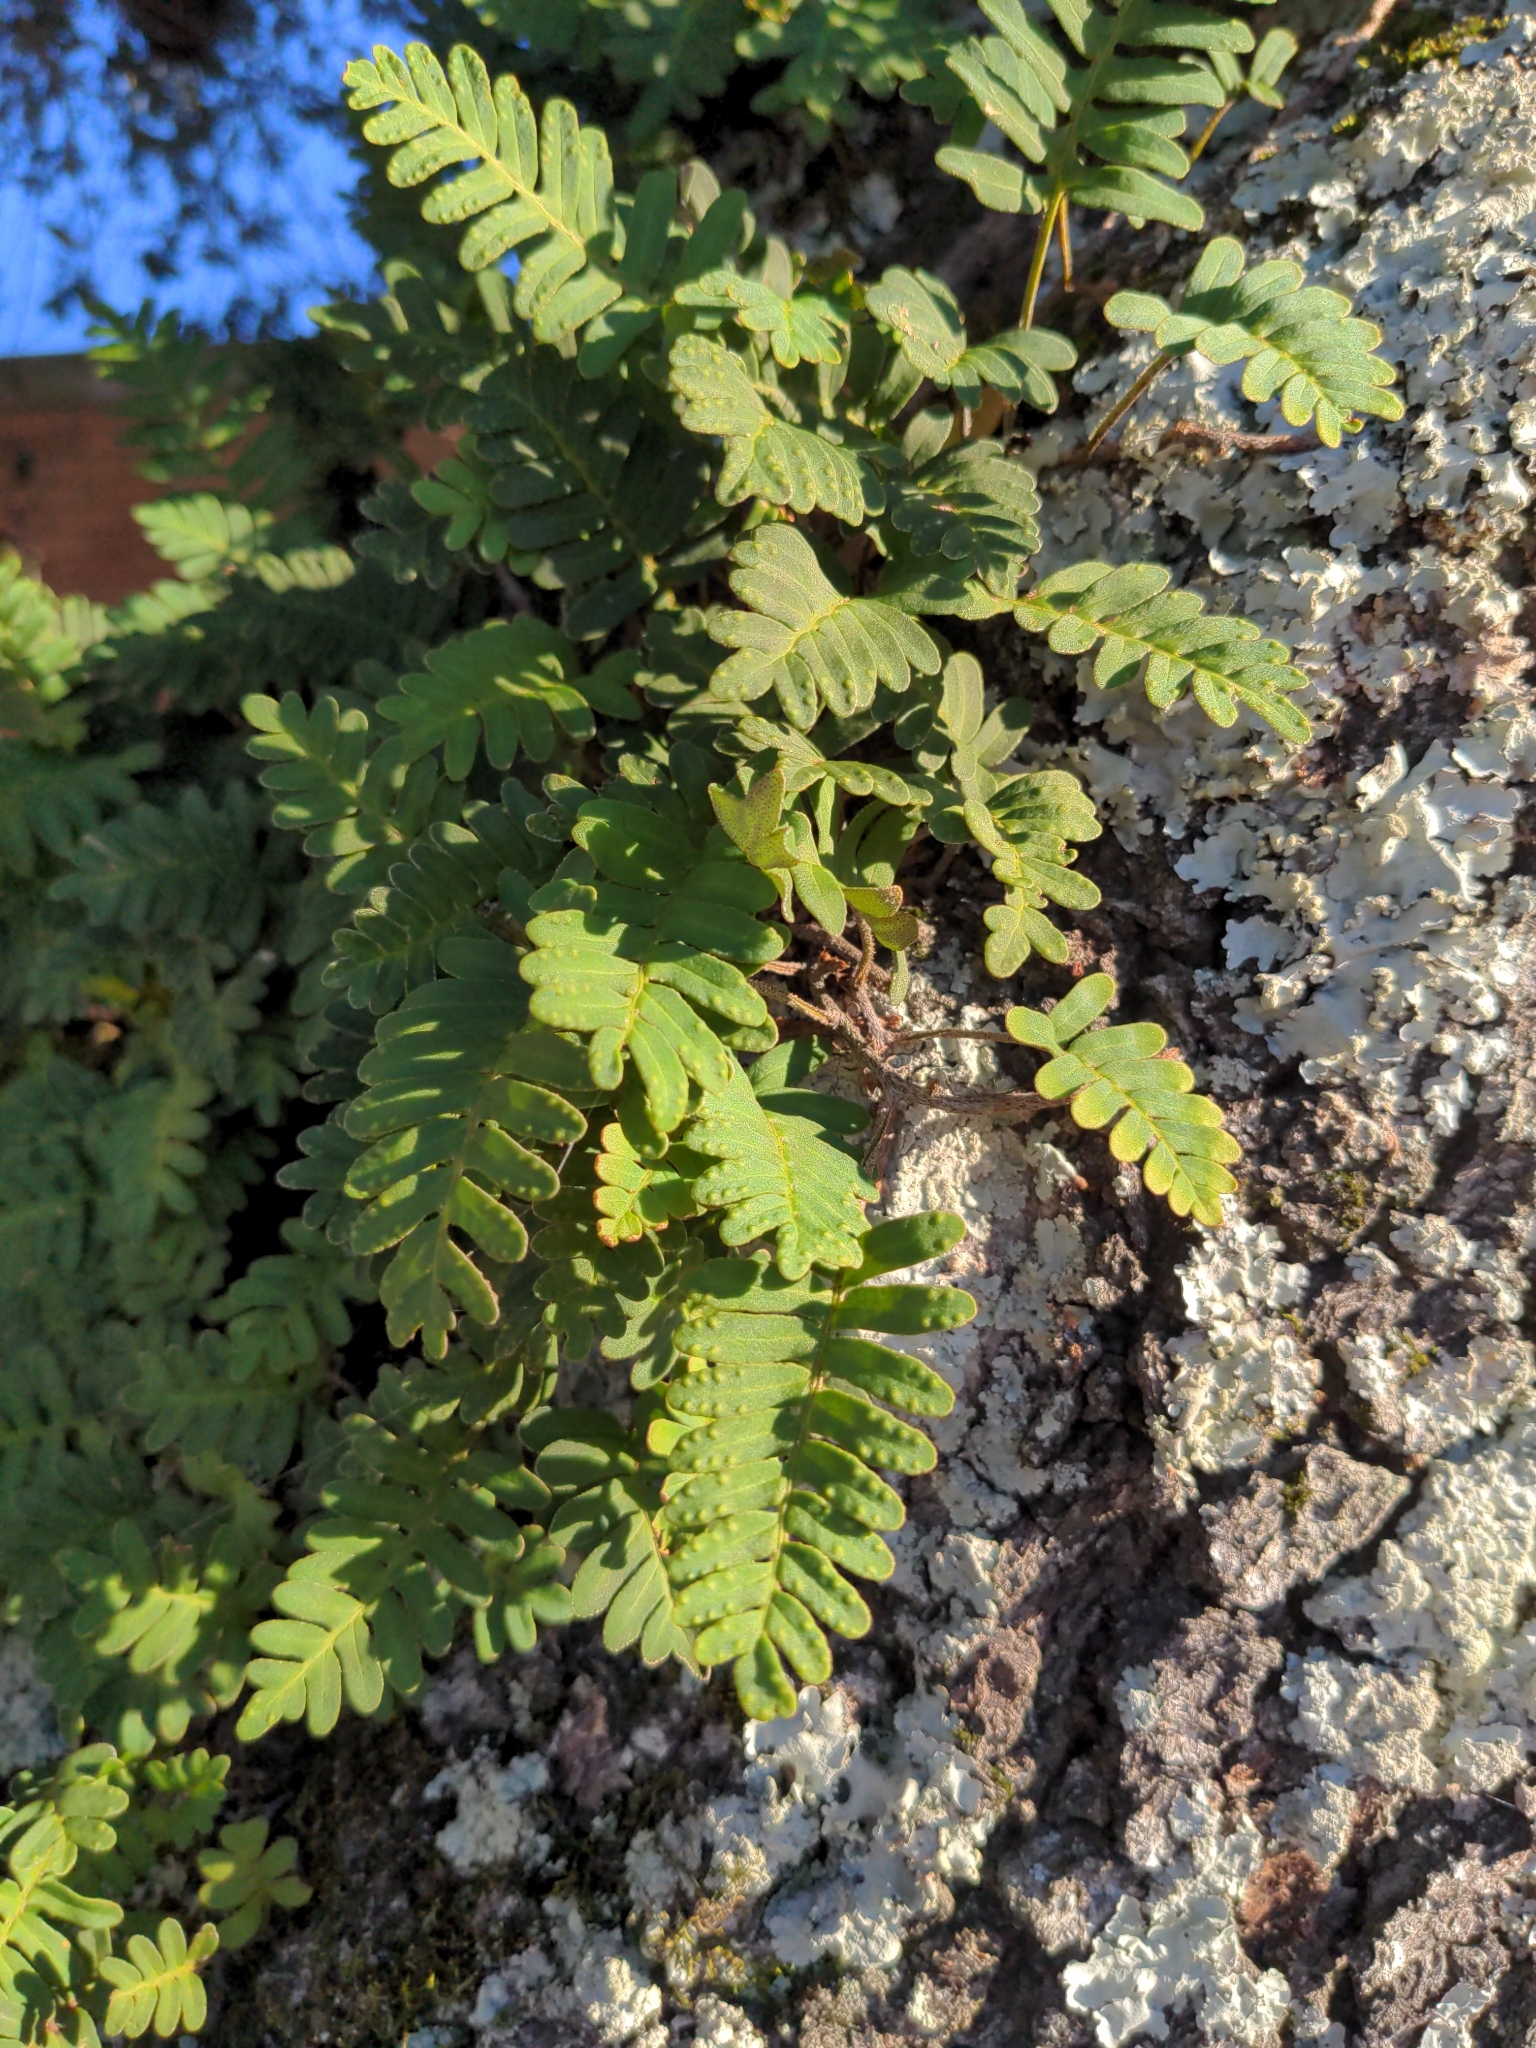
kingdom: Plantae
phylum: Tracheophyta
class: Polypodiopsida
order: Polypodiales
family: Polypodiaceae
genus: Pleopeltis
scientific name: Pleopeltis michauxiana
